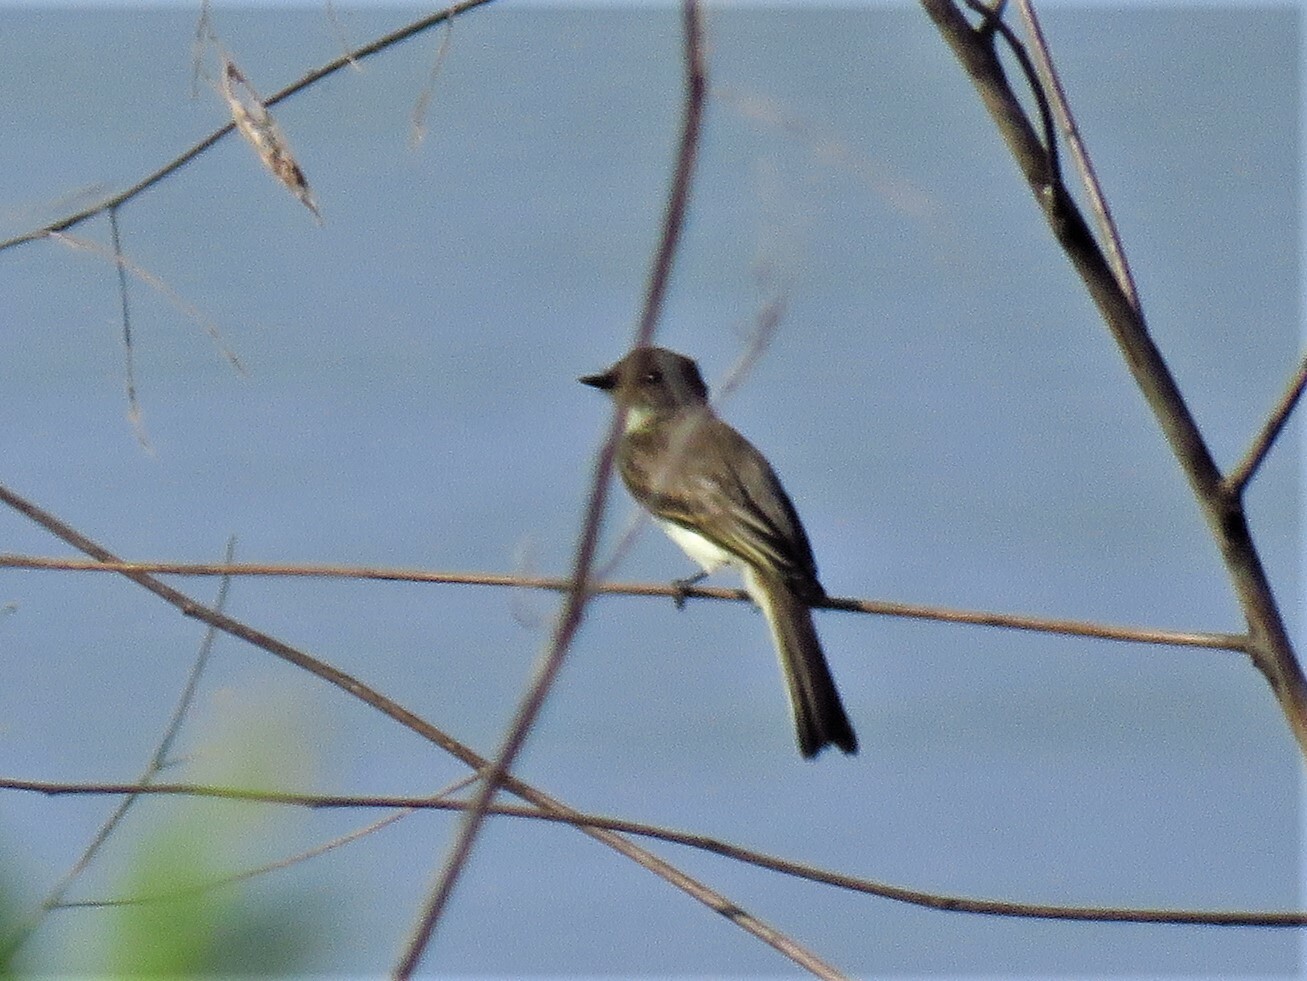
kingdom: Animalia
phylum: Chordata
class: Aves
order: Passeriformes
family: Tyrannidae
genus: Sayornis
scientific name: Sayornis phoebe
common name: Eastern phoebe
